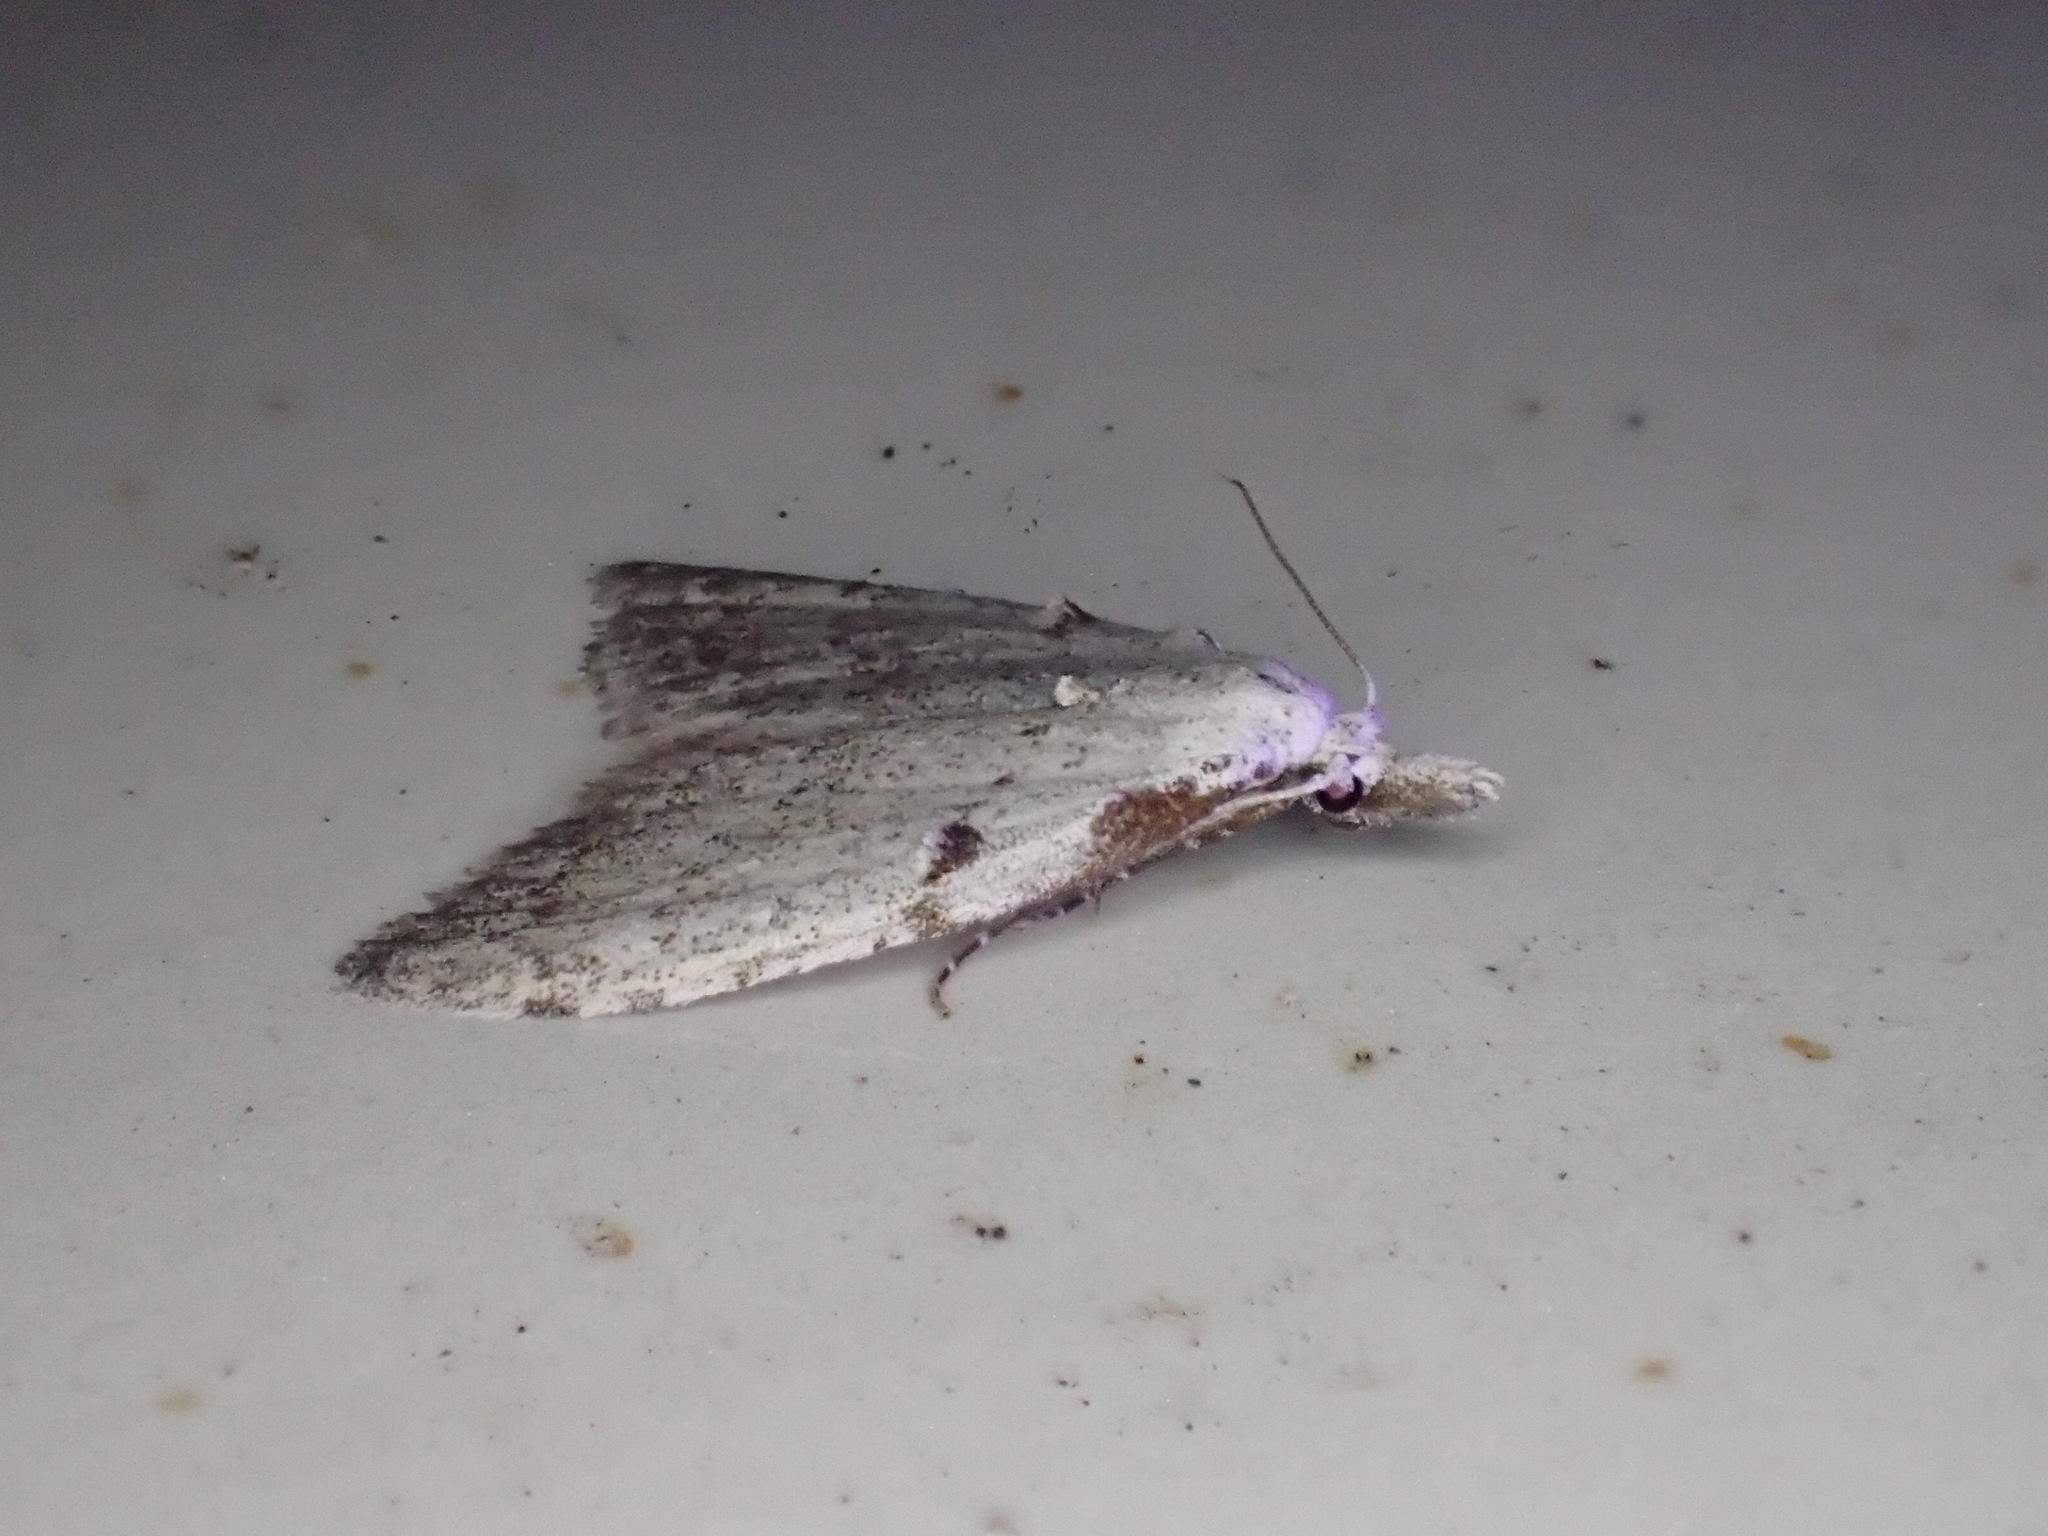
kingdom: Animalia
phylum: Arthropoda
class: Insecta
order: Lepidoptera
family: Nolidae
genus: Nola
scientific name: Nola minna
